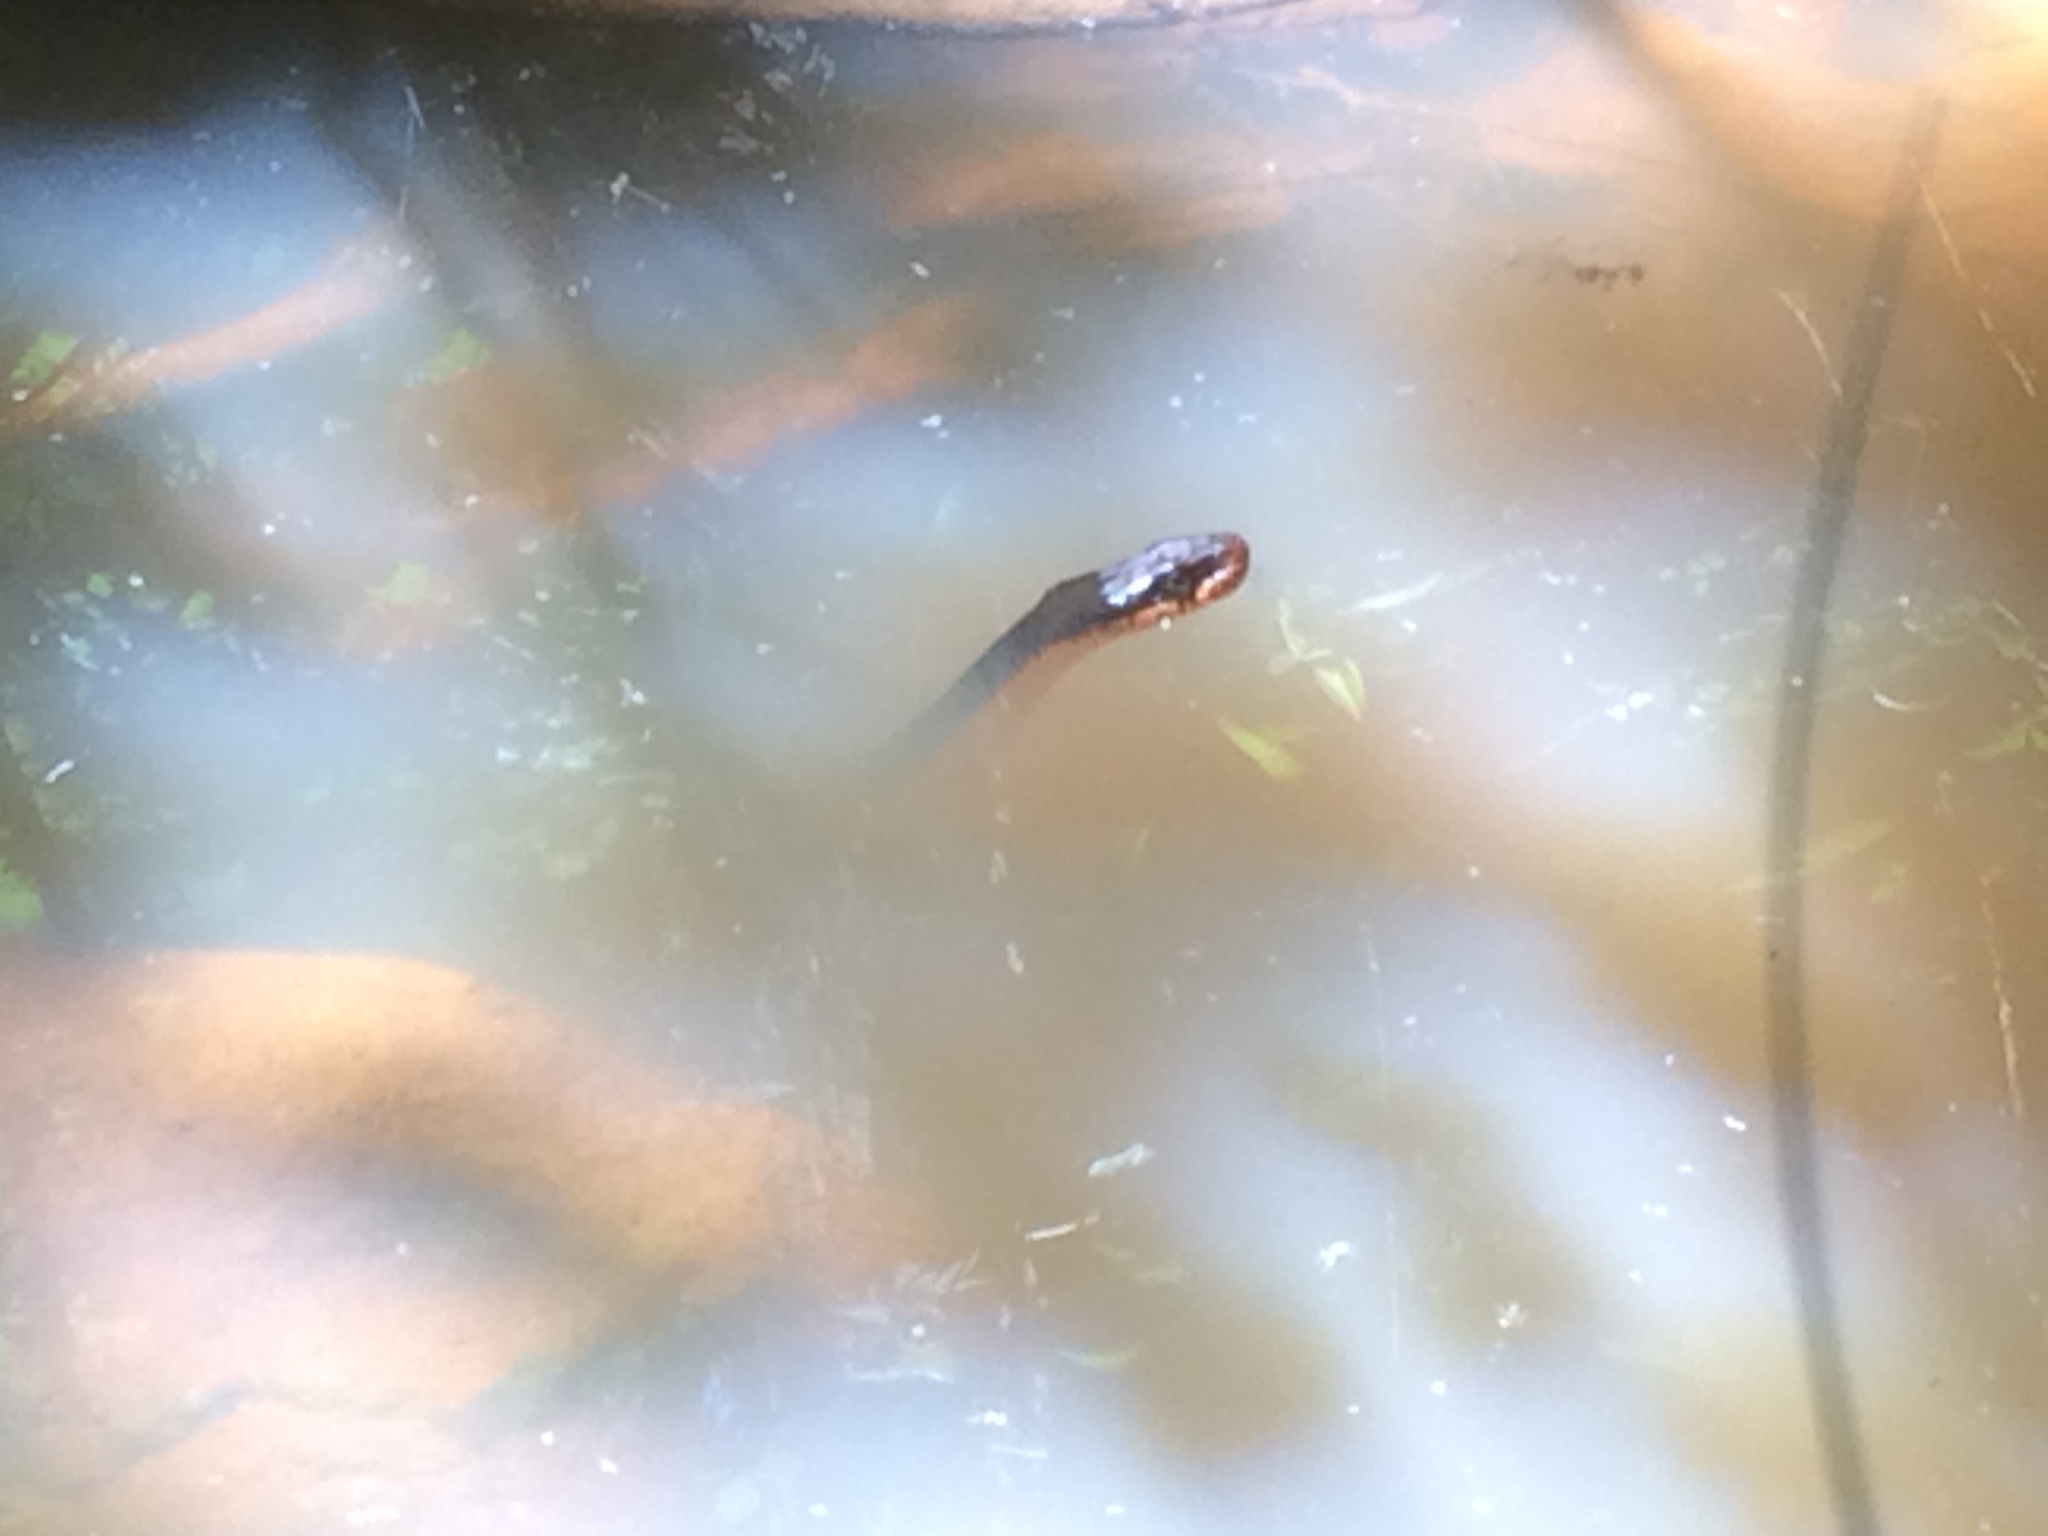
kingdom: Animalia
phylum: Chordata
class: Squamata
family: Colubridae
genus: Nerodia
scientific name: Nerodia erythrogaster
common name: Plainbelly water snake
